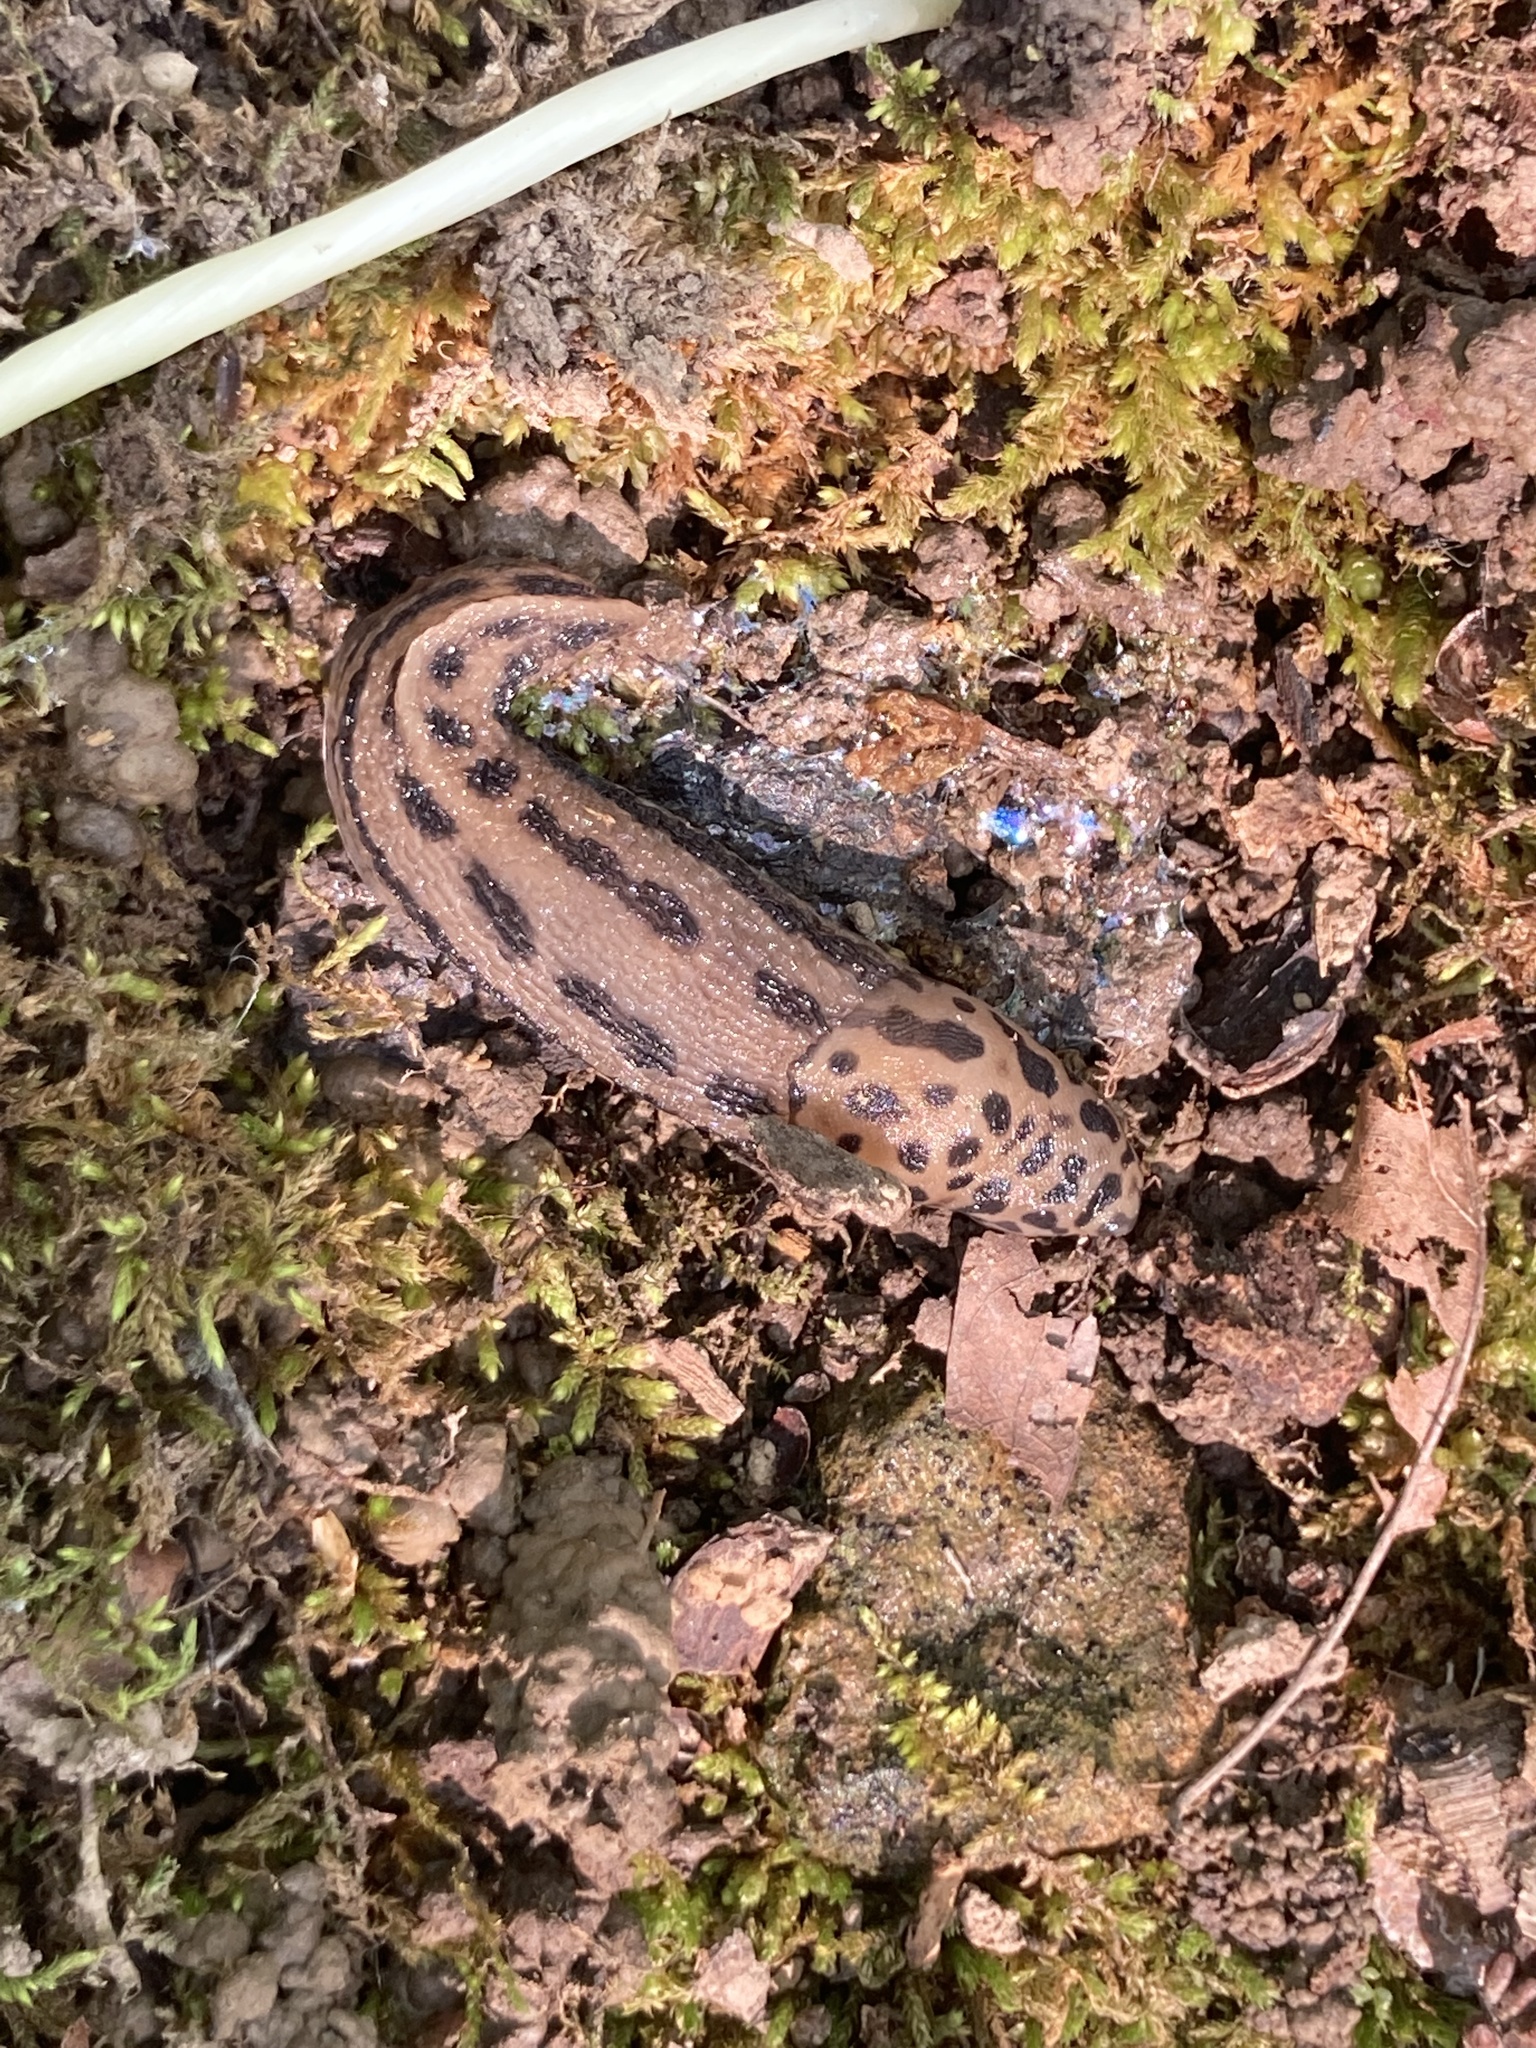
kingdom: Animalia
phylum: Mollusca
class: Gastropoda
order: Stylommatophora
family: Limacidae
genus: Limax
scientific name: Limax maximus
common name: Great grey slug
